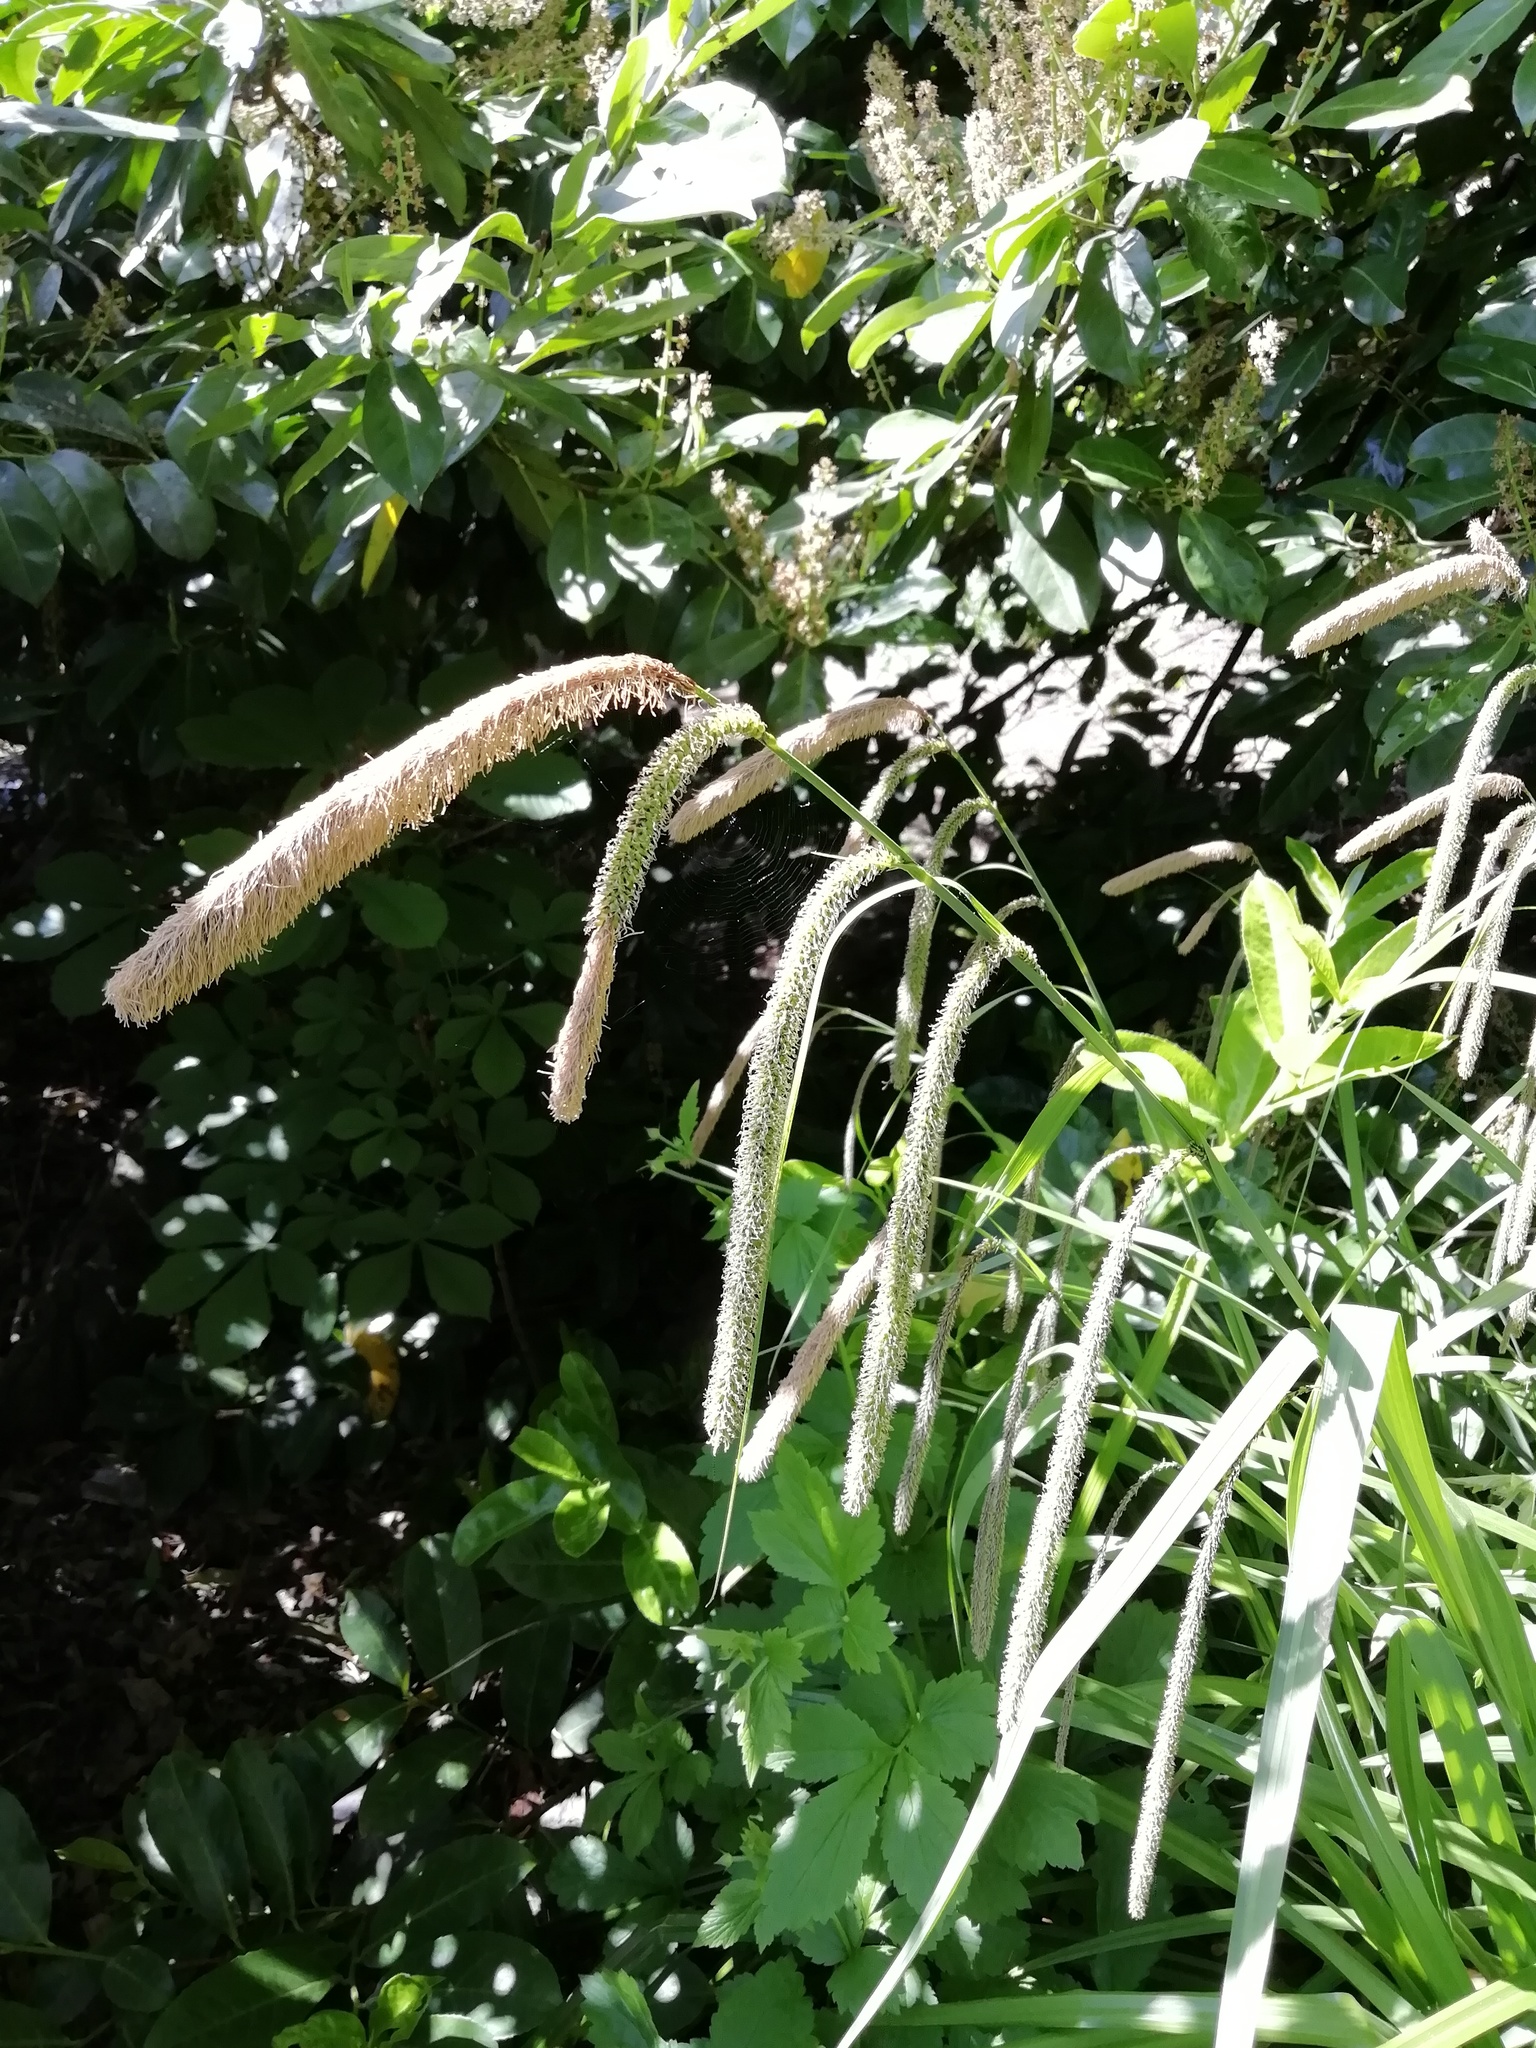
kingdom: Plantae
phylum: Tracheophyta
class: Liliopsida
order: Poales
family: Cyperaceae
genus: Carex
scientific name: Carex pendula
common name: Pendulous sedge
